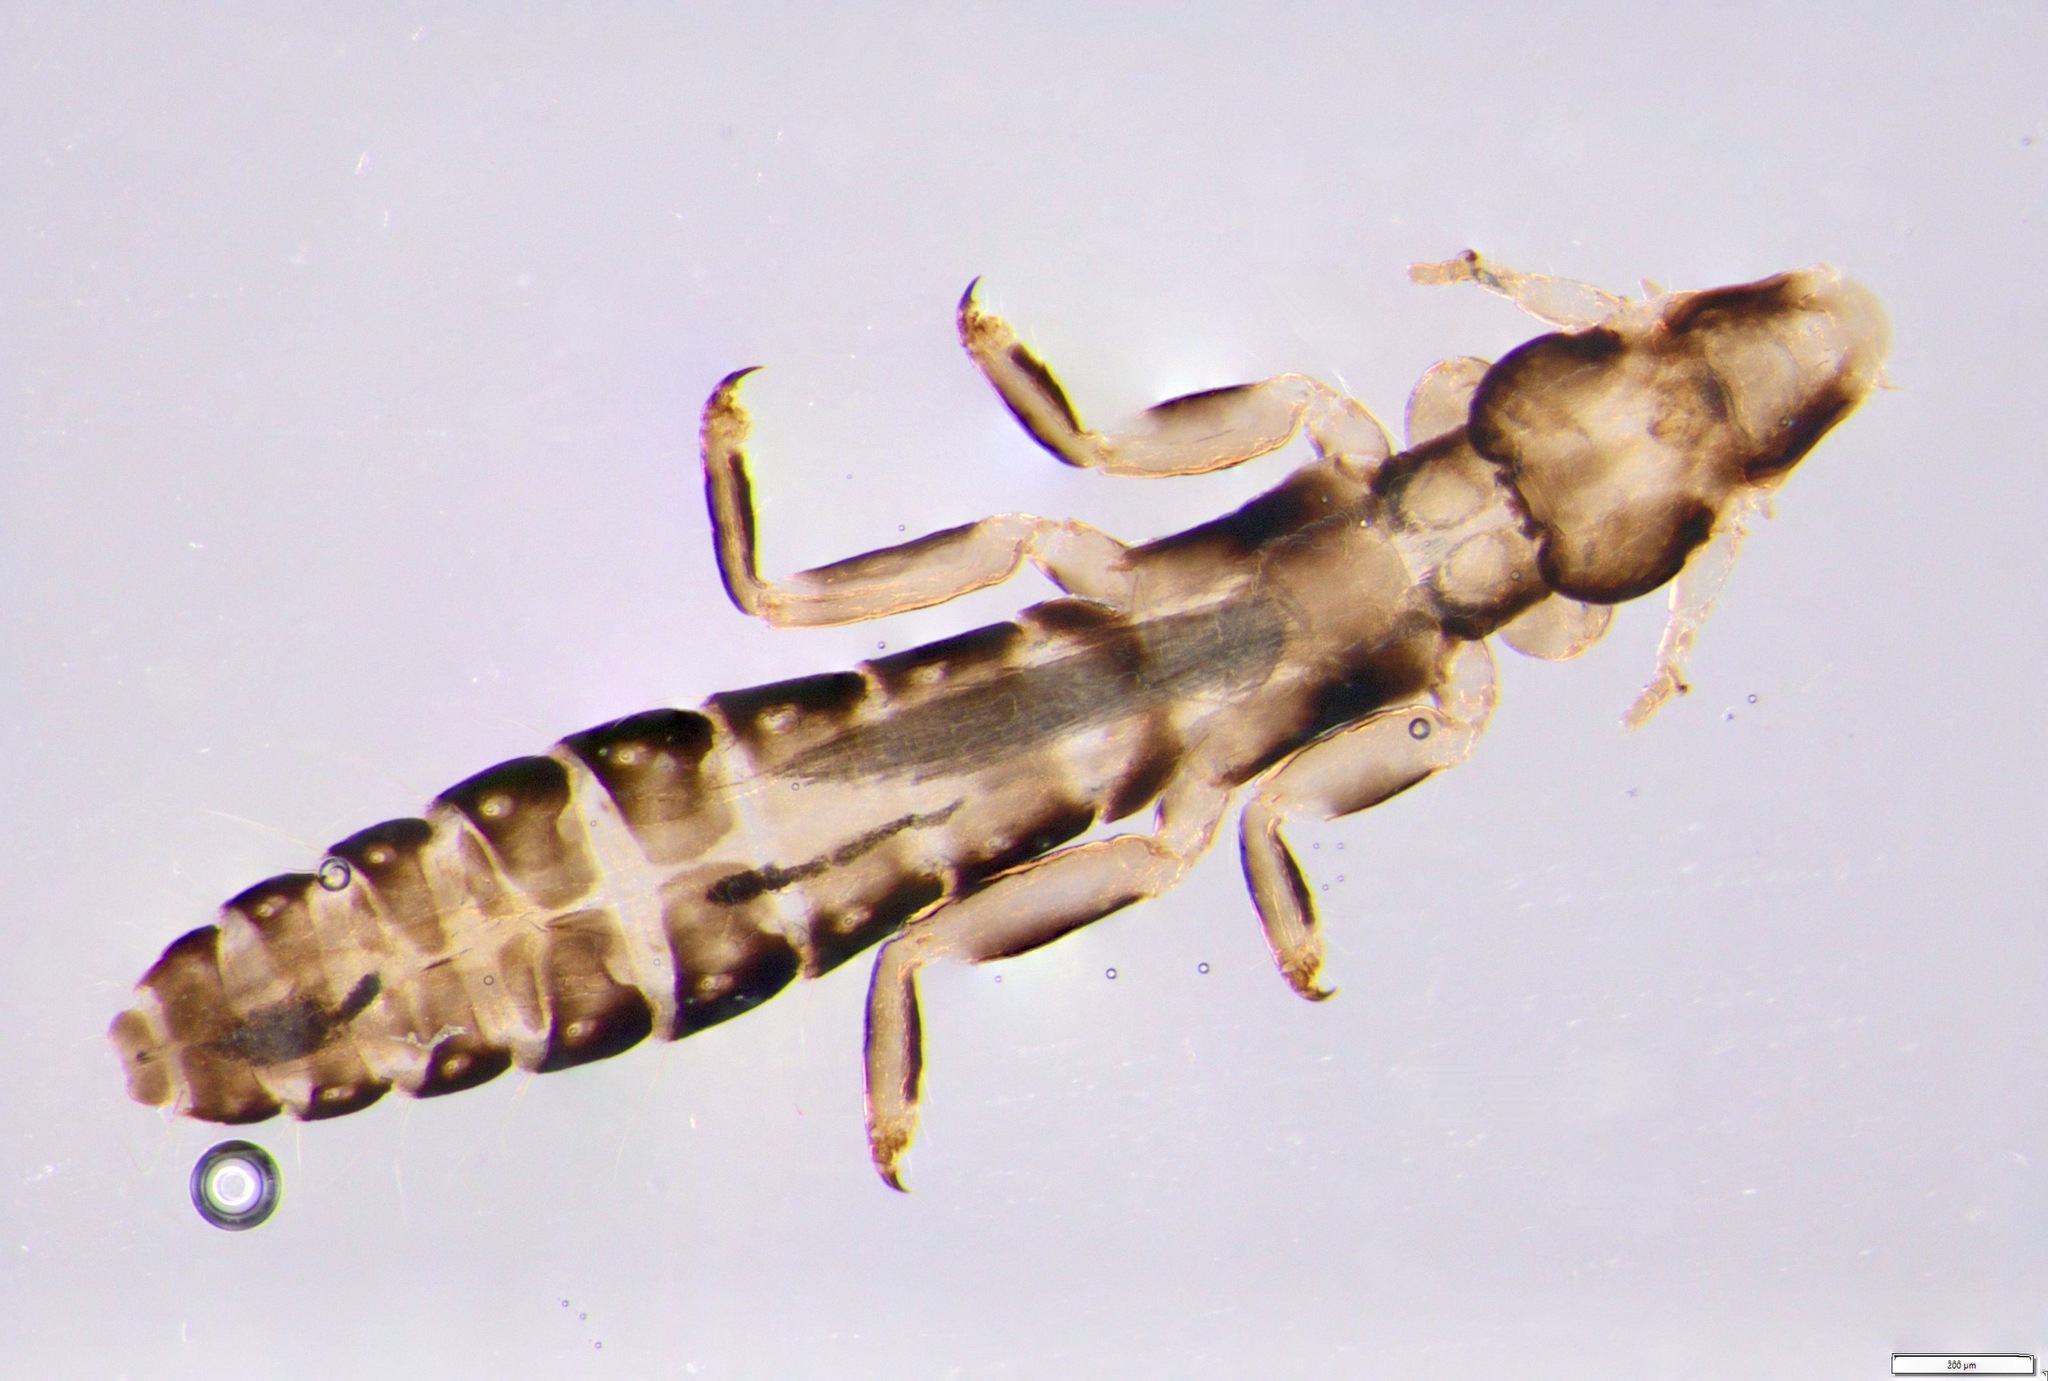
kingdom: Animalia
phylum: Arthropoda
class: Insecta
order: Psocodea
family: Philopteridae
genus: Anaticola
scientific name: Anaticola crassicorne
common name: Louse
